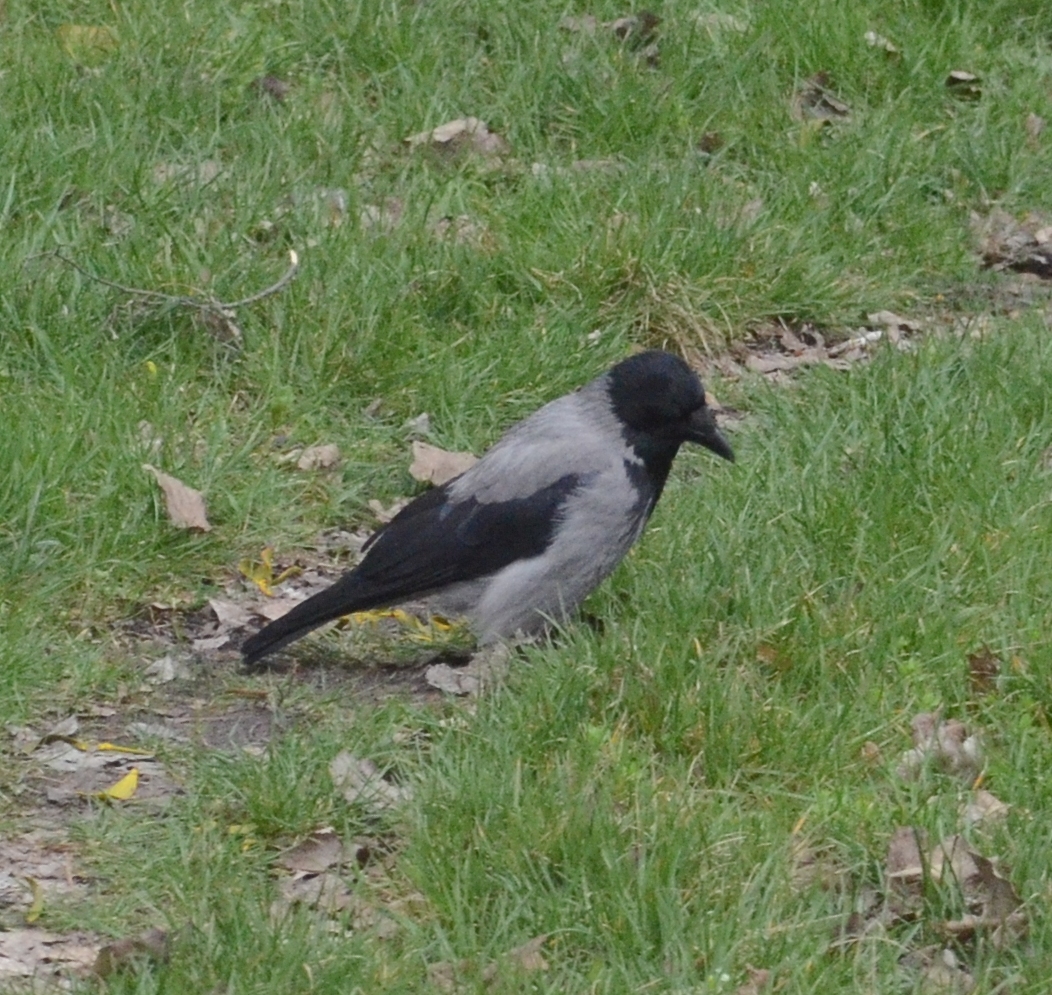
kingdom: Animalia
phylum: Chordata
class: Aves
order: Passeriformes
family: Corvidae
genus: Corvus
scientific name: Corvus cornix
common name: Hooded crow
